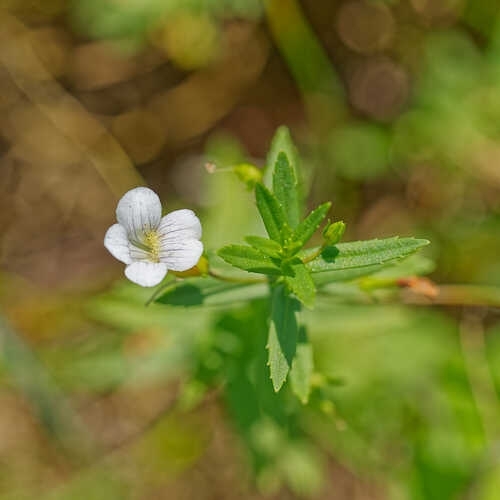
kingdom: Plantae
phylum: Tracheophyta
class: Magnoliopsida
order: Lamiales
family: Plantaginaceae
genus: Gratiola
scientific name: Gratiola officinalis
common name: Gratiola
